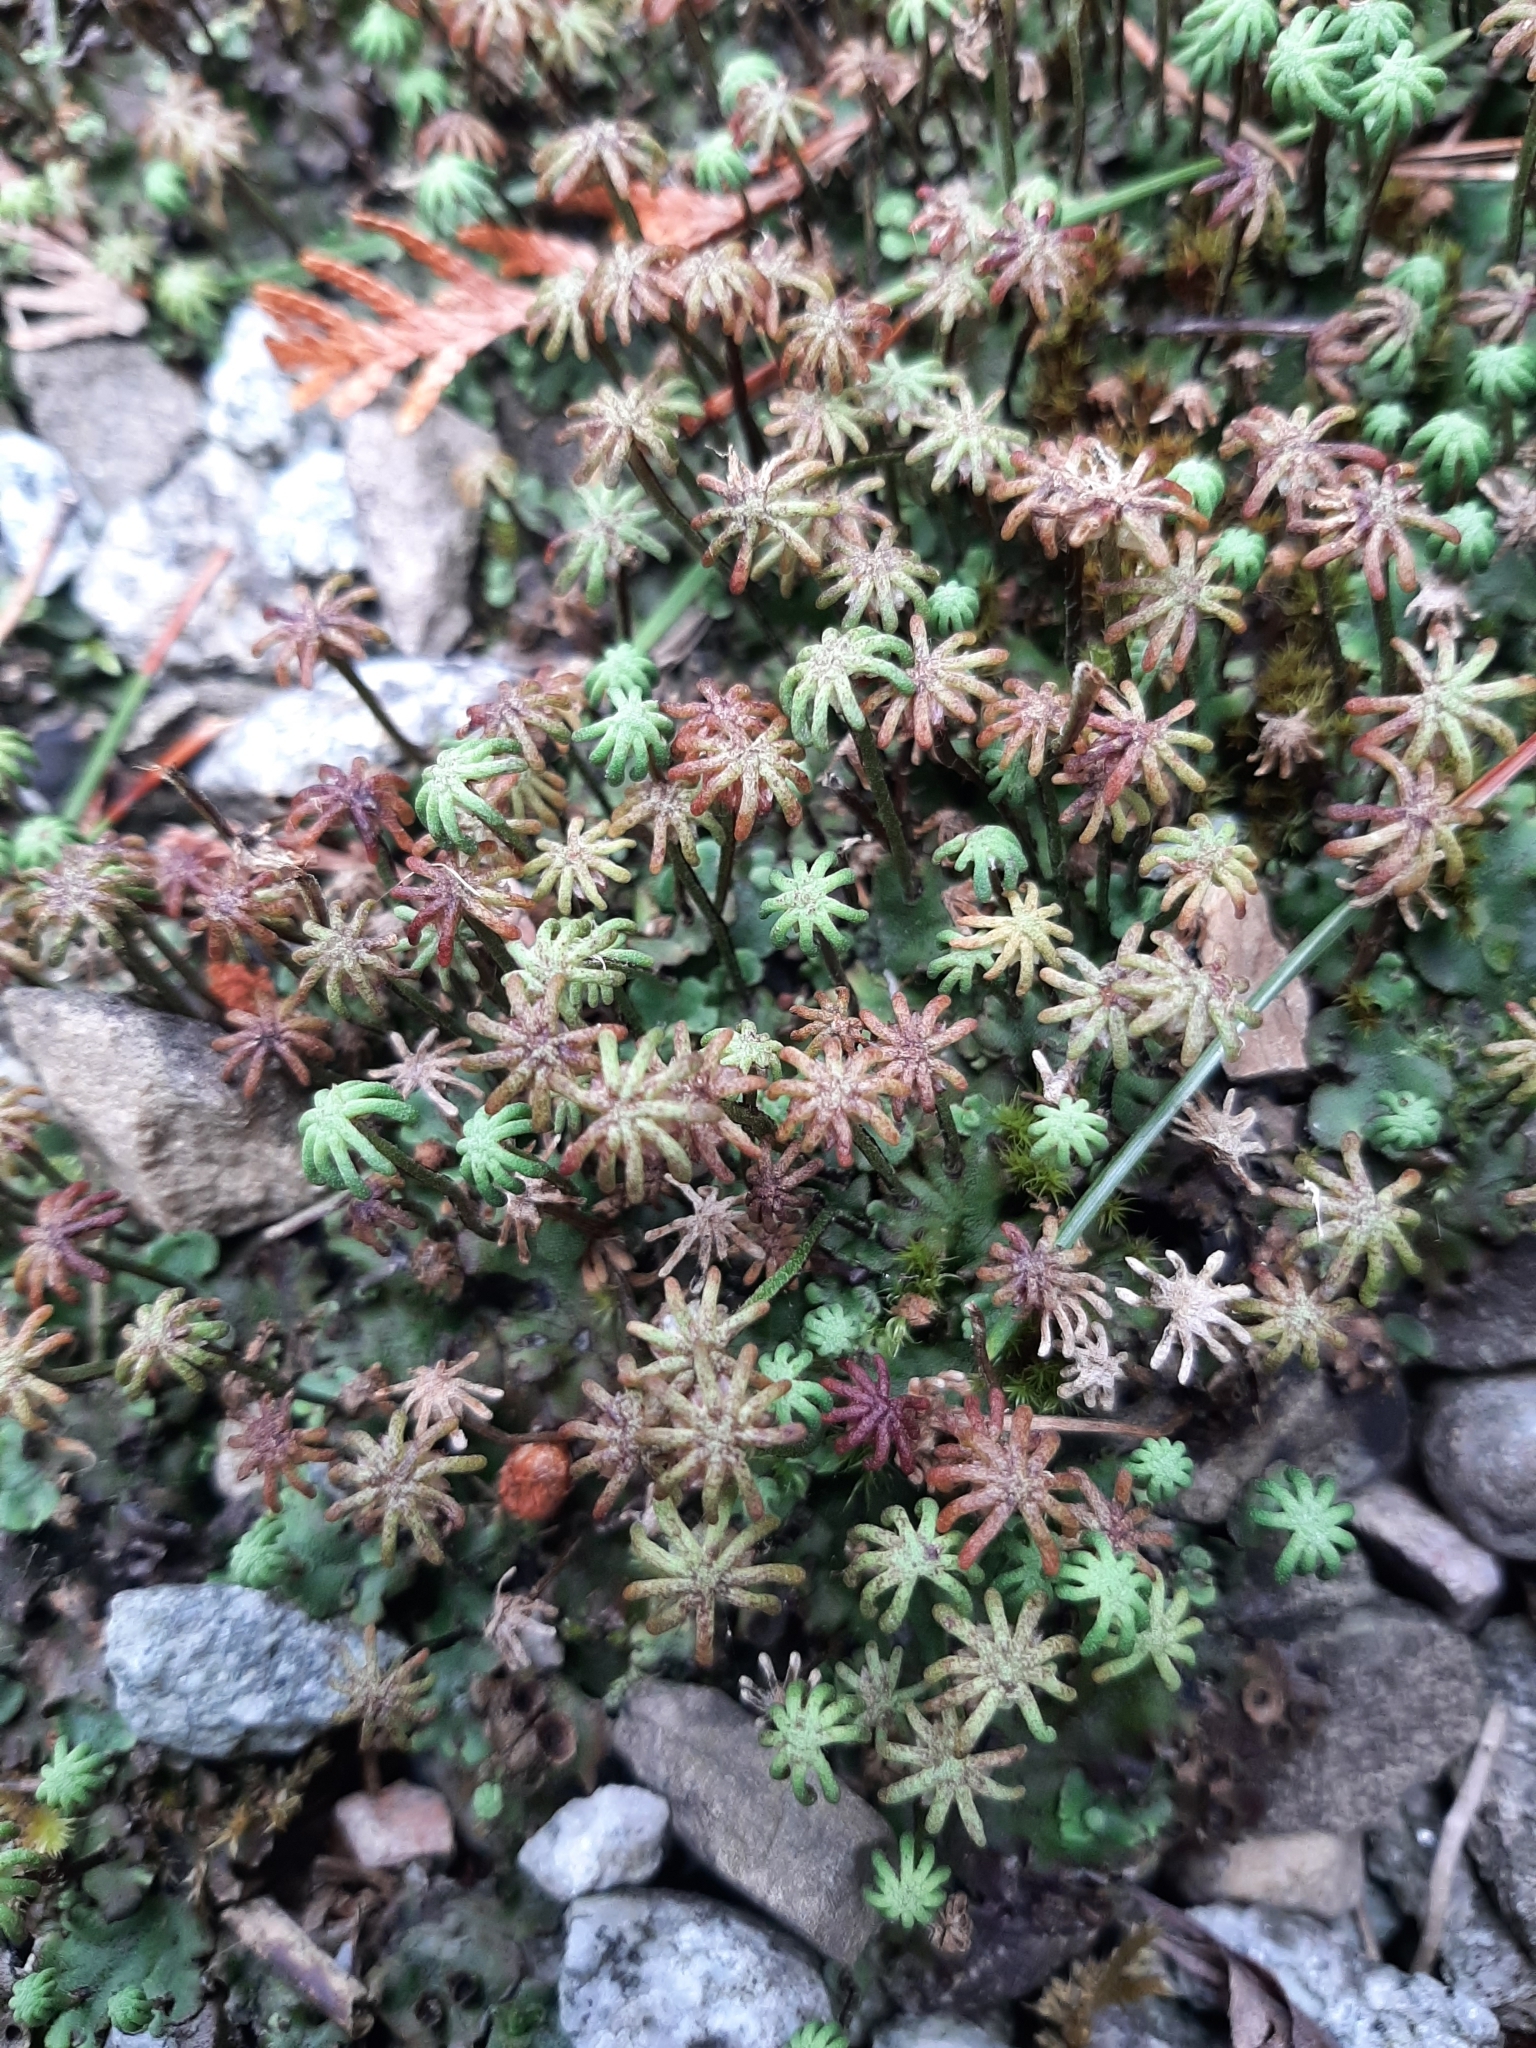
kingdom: Plantae
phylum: Marchantiophyta
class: Marchantiopsida
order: Marchantiales
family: Marchantiaceae
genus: Marchantia
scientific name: Marchantia polymorpha
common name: Common liverwort
